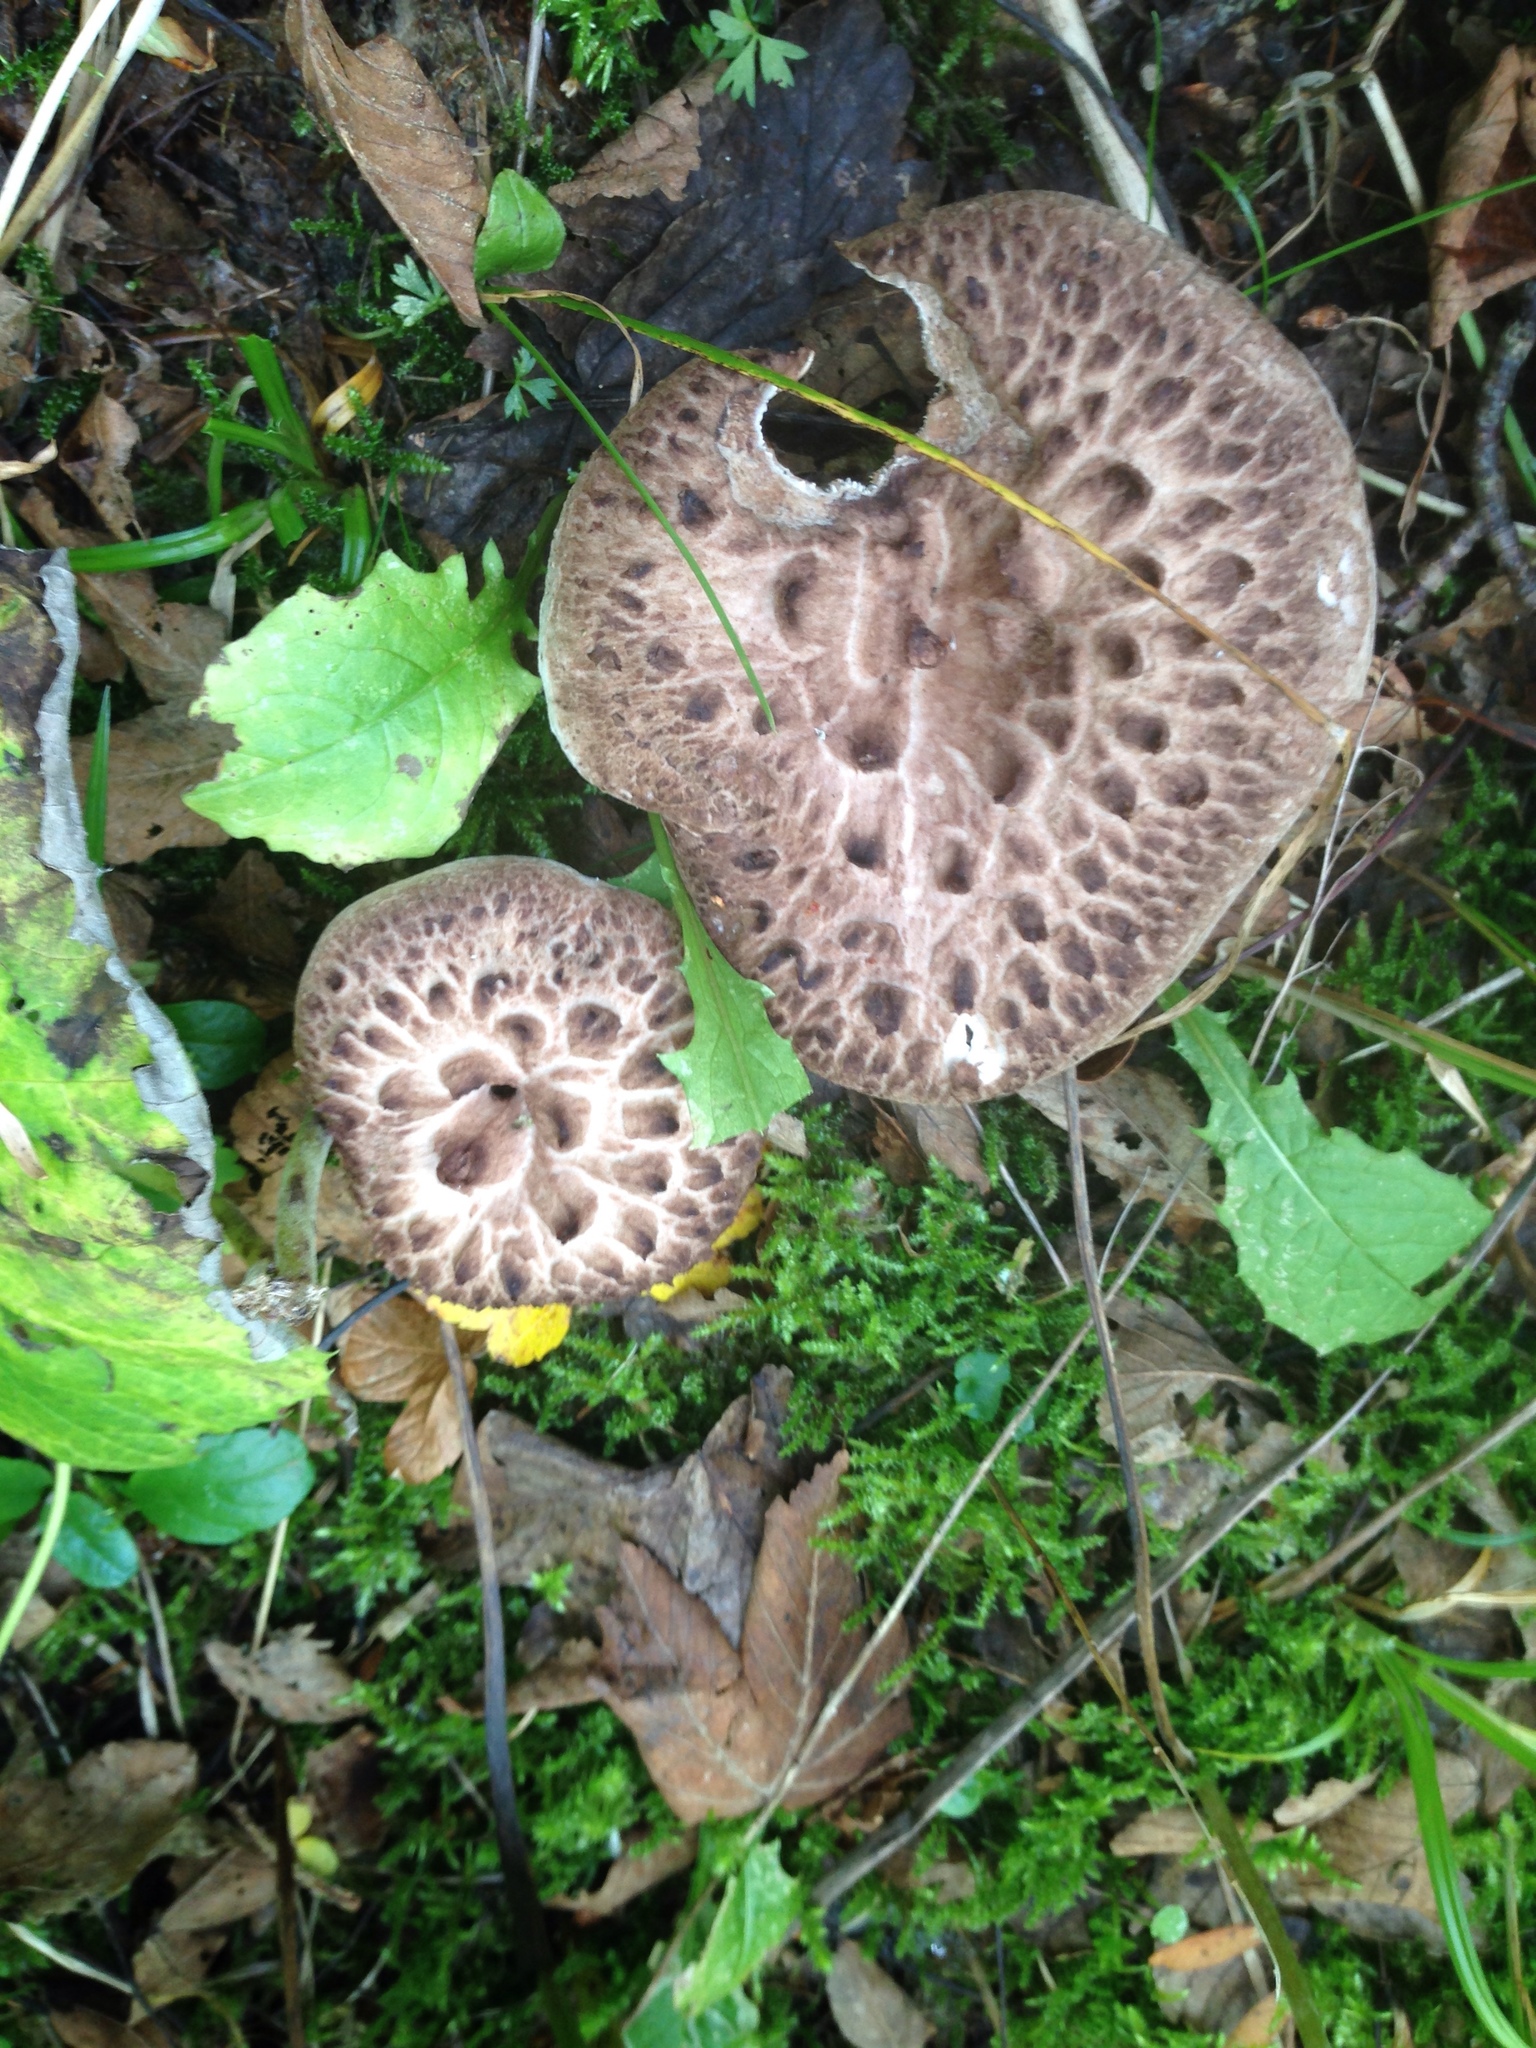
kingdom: Fungi
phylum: Basidiomycota
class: Agaricomycetes
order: Thelephorales
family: Bankeraceae
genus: Sarcodon
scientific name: Sarcodon imbricatus
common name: Shingled hedgehog
